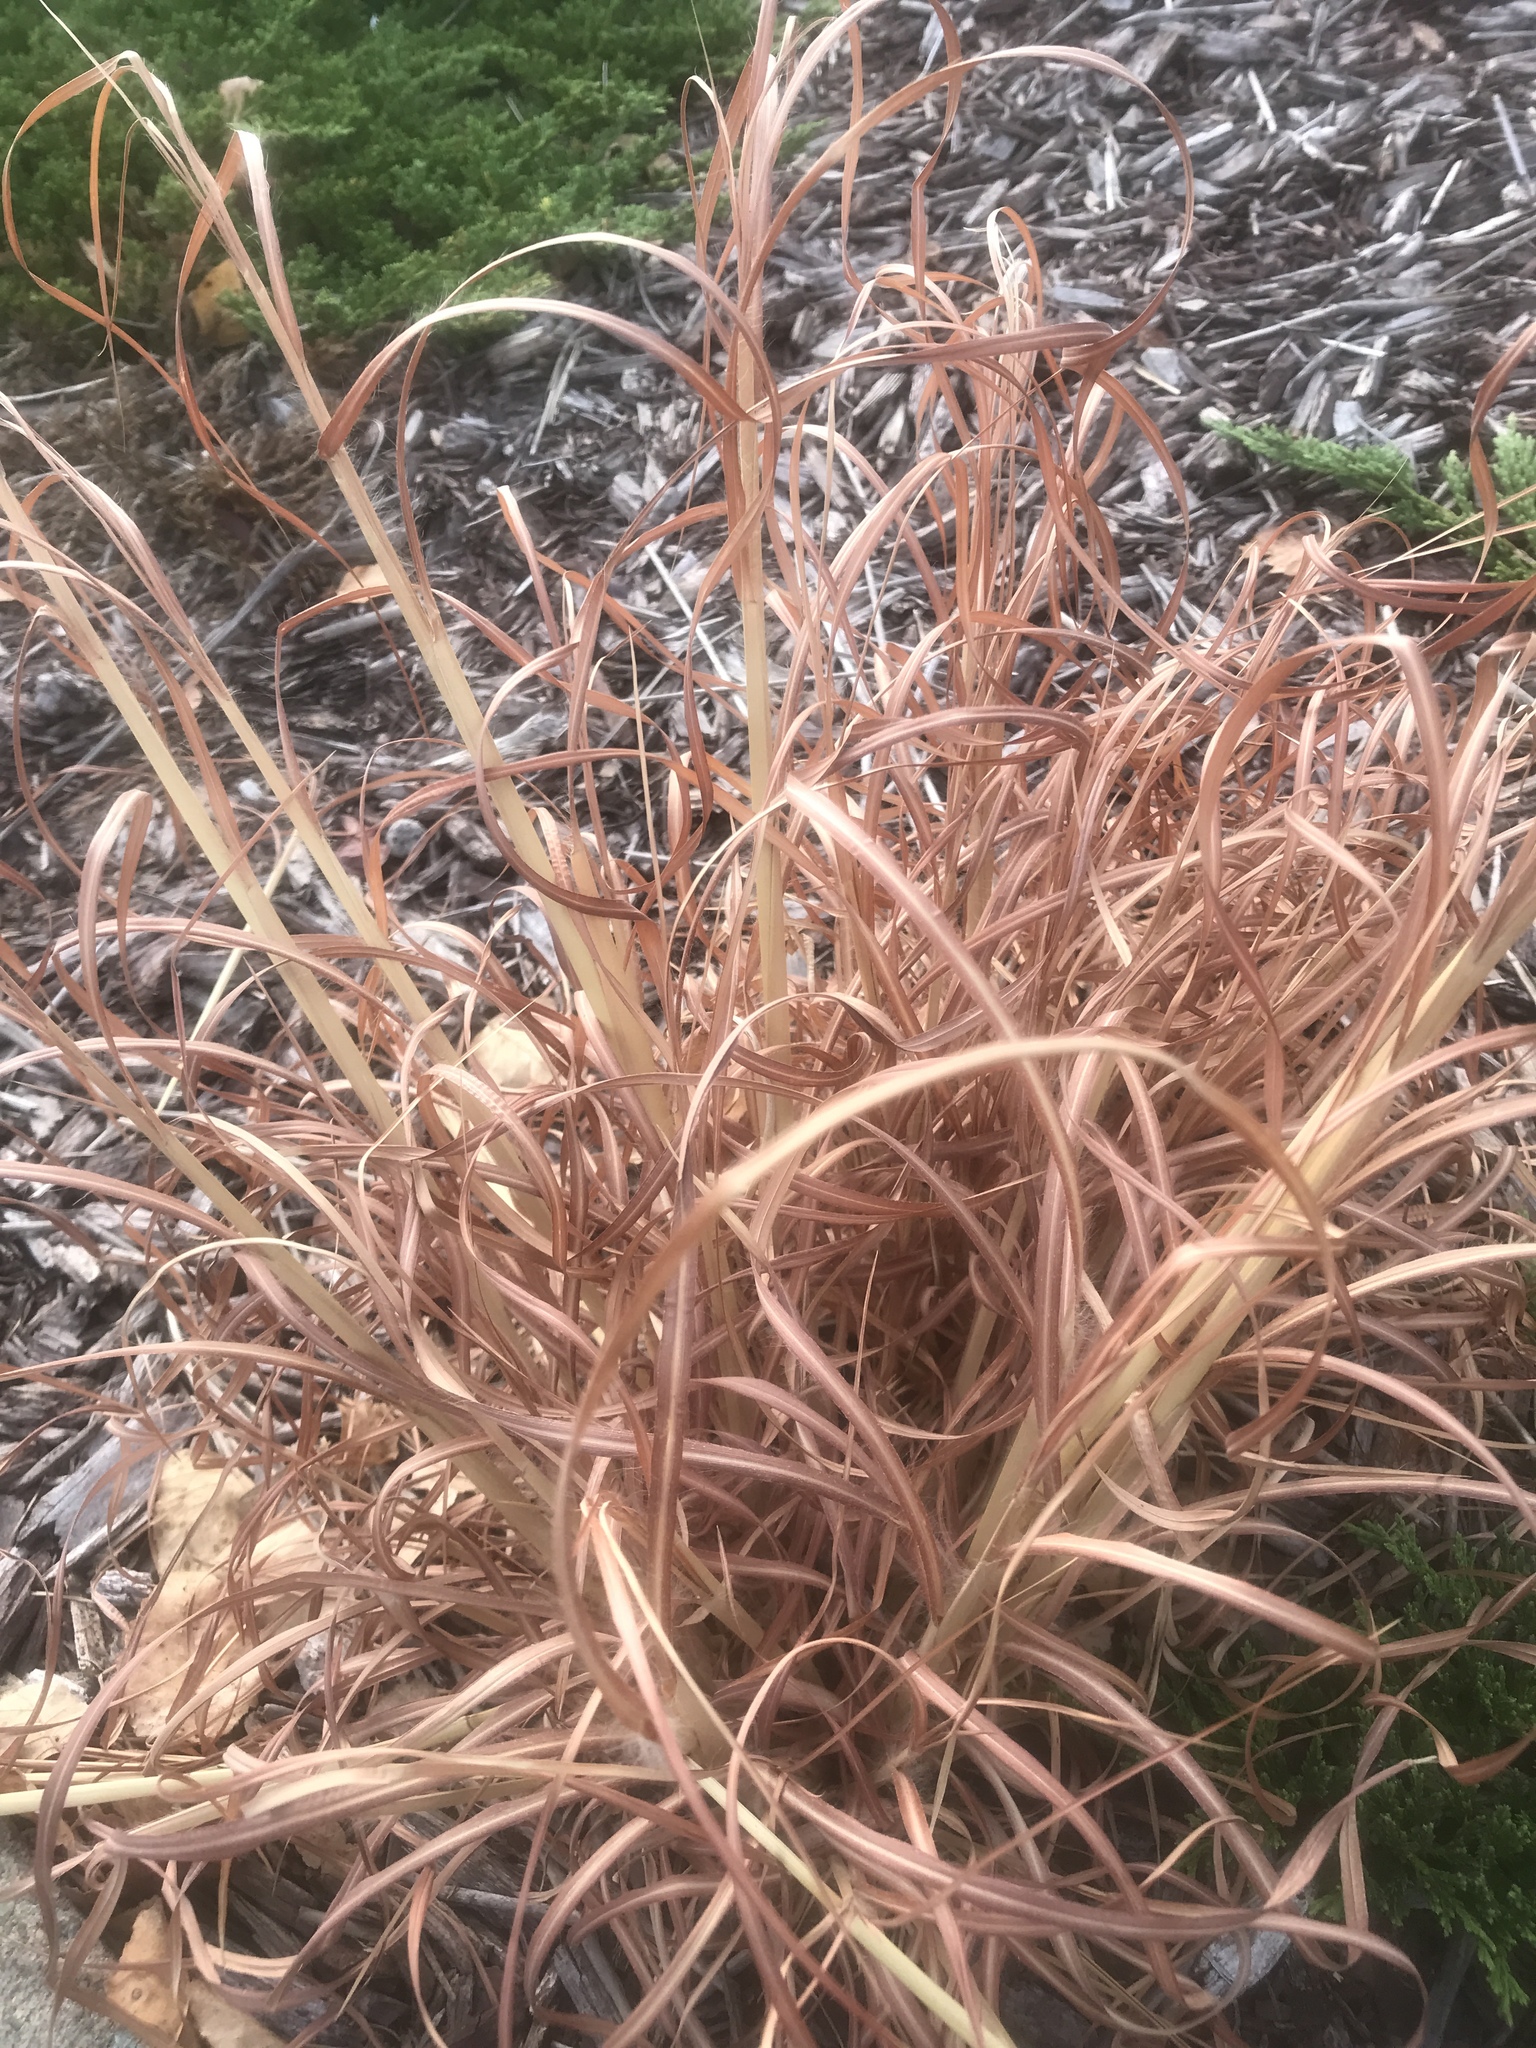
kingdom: Plantae
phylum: Tracheophyta
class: Liliopsida
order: Poales
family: Poaceae
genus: Andropogon
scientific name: Andropogon virginicus
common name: Broomsedge bluestem
